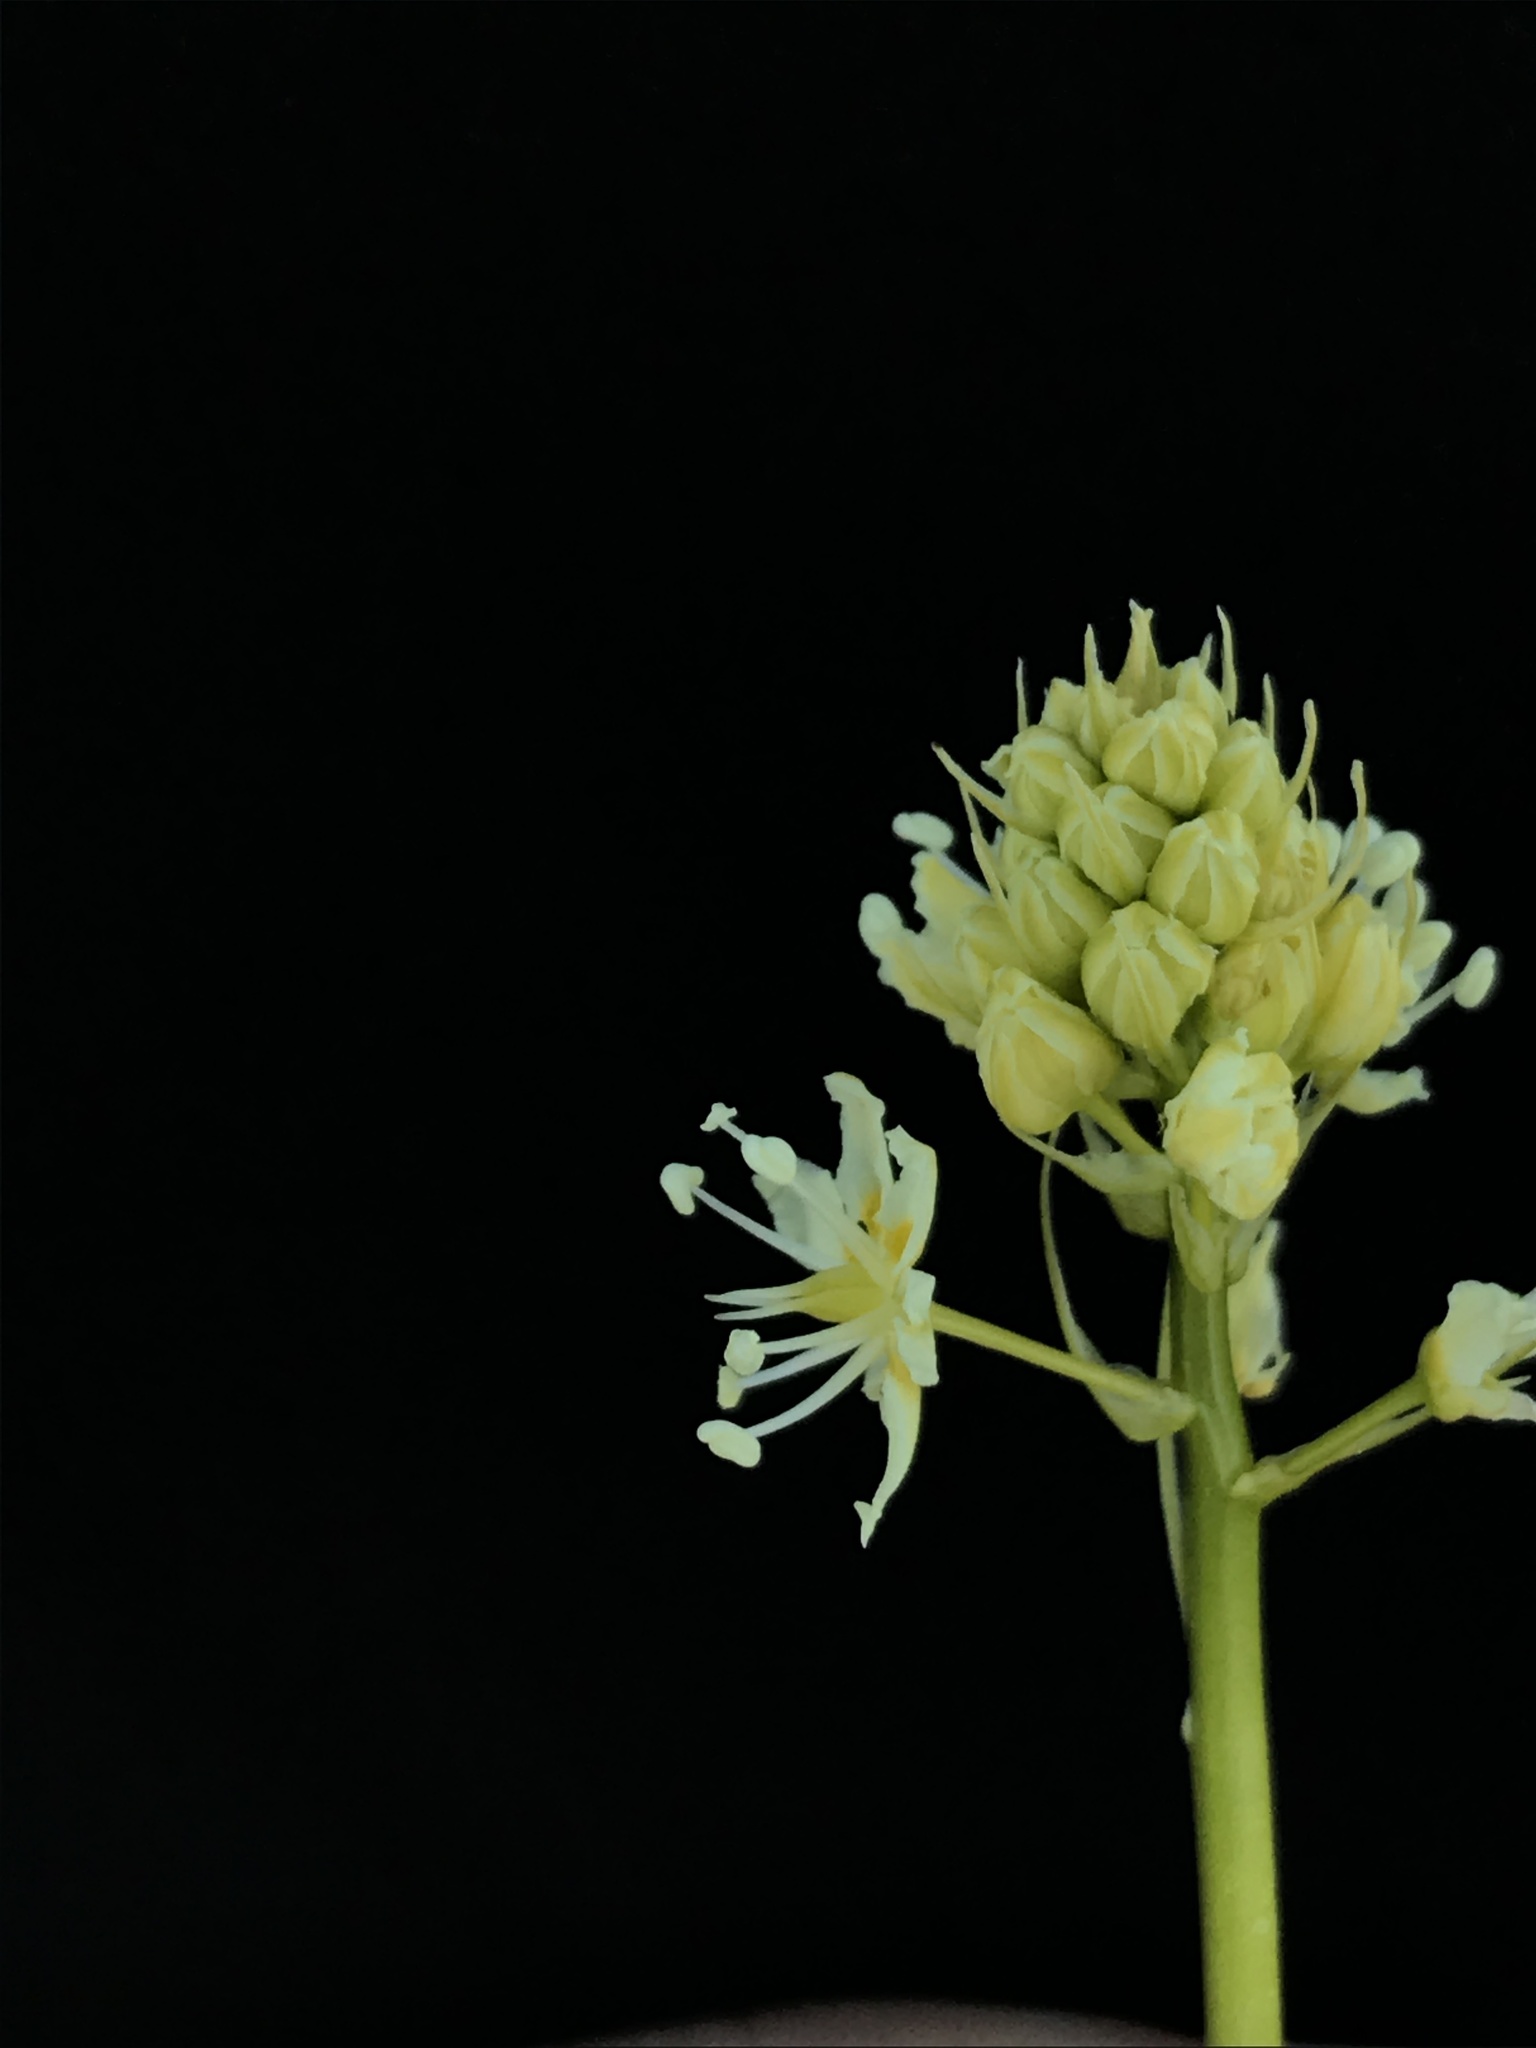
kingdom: Plantae
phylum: Tracheophyta
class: Liliopsida
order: Liliales
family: Melanthiaceae
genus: Toxicoscordion
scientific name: Toxicoscordion venenosum
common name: Meadow death camas
